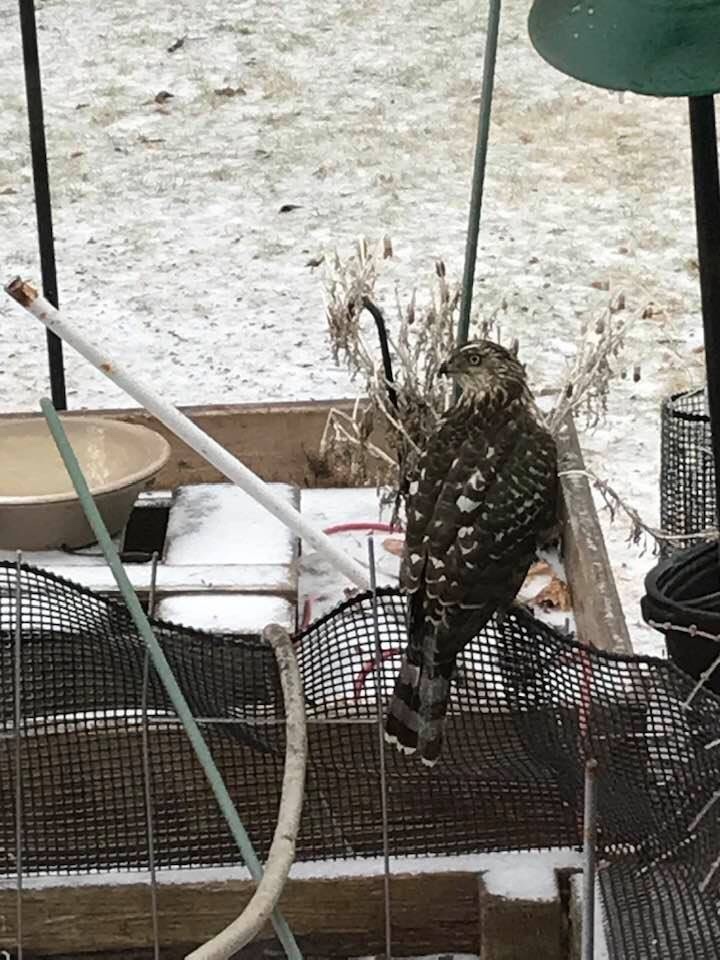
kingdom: Animalia
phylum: Chordata
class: Aves
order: Accipitriformes
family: Accipitridae
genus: Accipiter
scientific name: Accipiter cooperii
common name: Cooper's hawk
